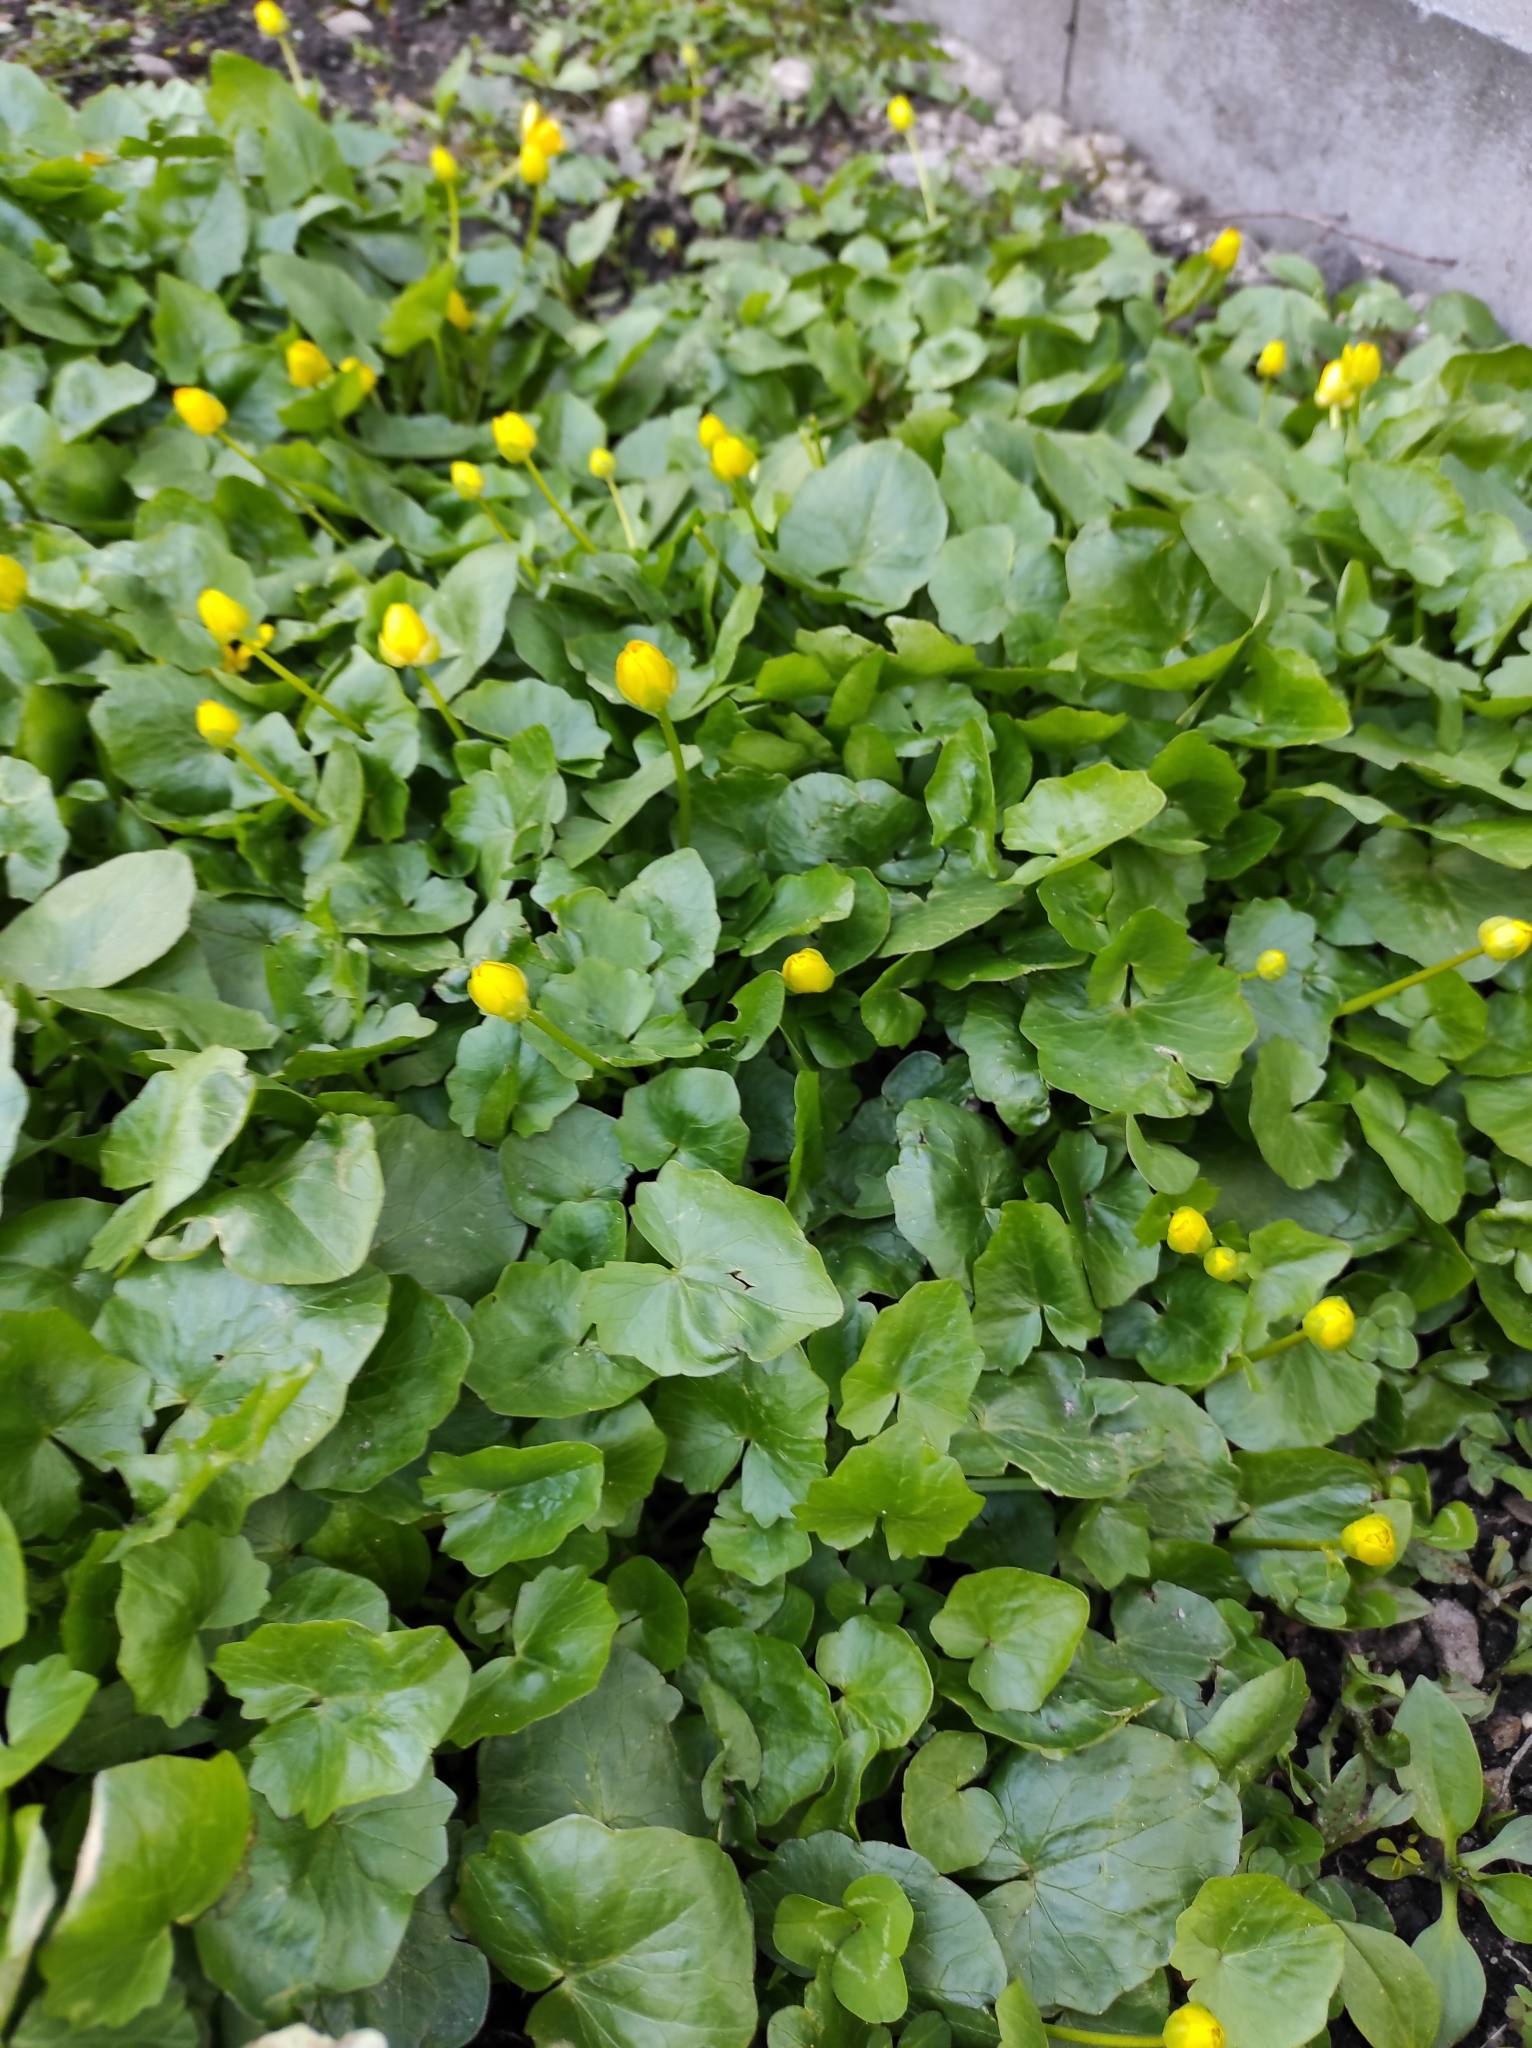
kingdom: Plantae
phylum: Tracheophyta
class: Magnoliopsida
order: Ranunculales
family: Ranunculaceae
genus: Ficaria
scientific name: Ficaria verna
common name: Lesser celandine
